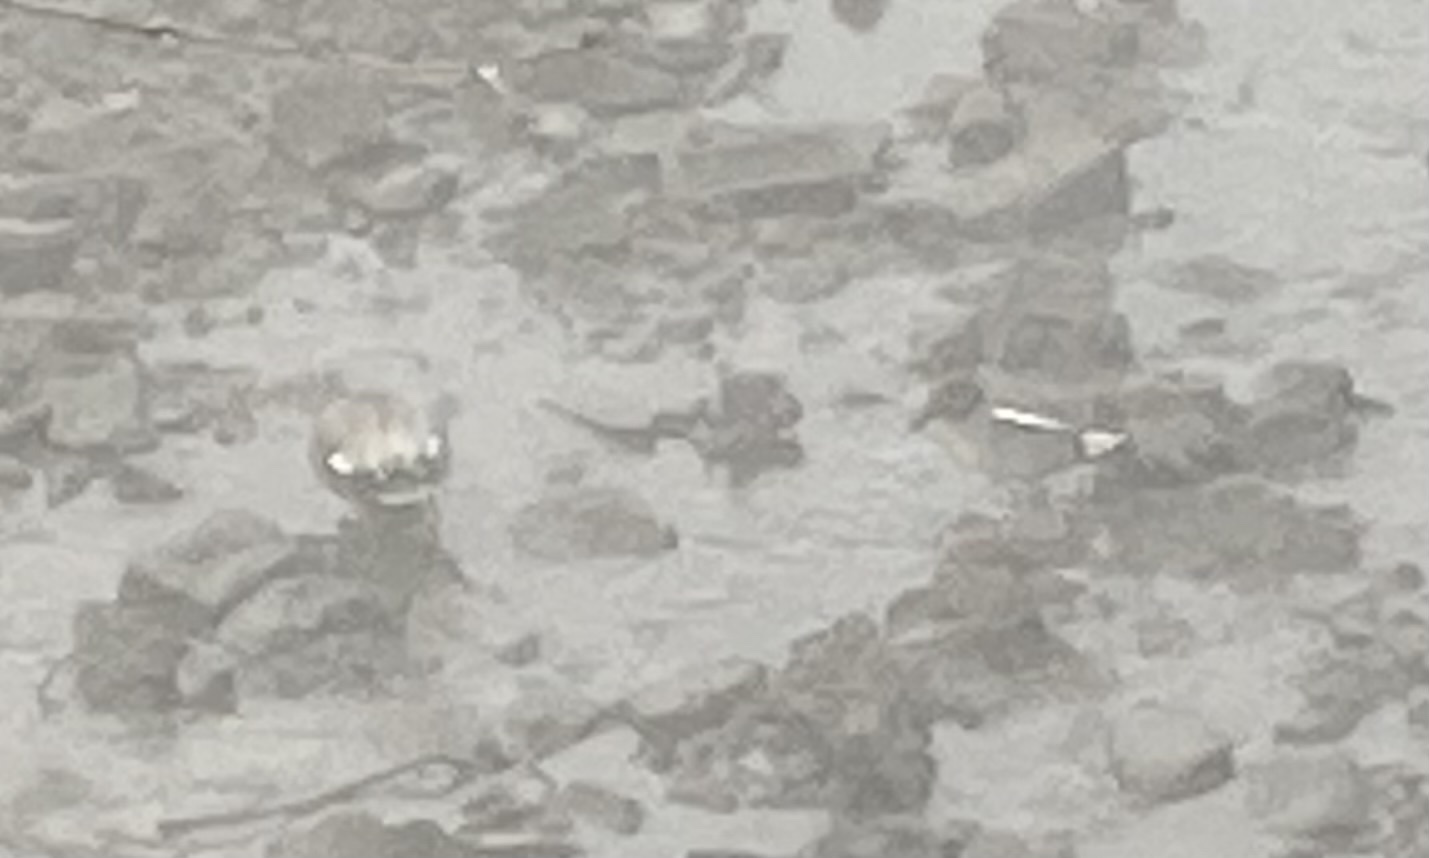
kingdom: Animalia
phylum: Chordata
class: Aves
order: Anseriformes
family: Anatidae
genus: Anas
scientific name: Anas crecca
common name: Eurasian teal
